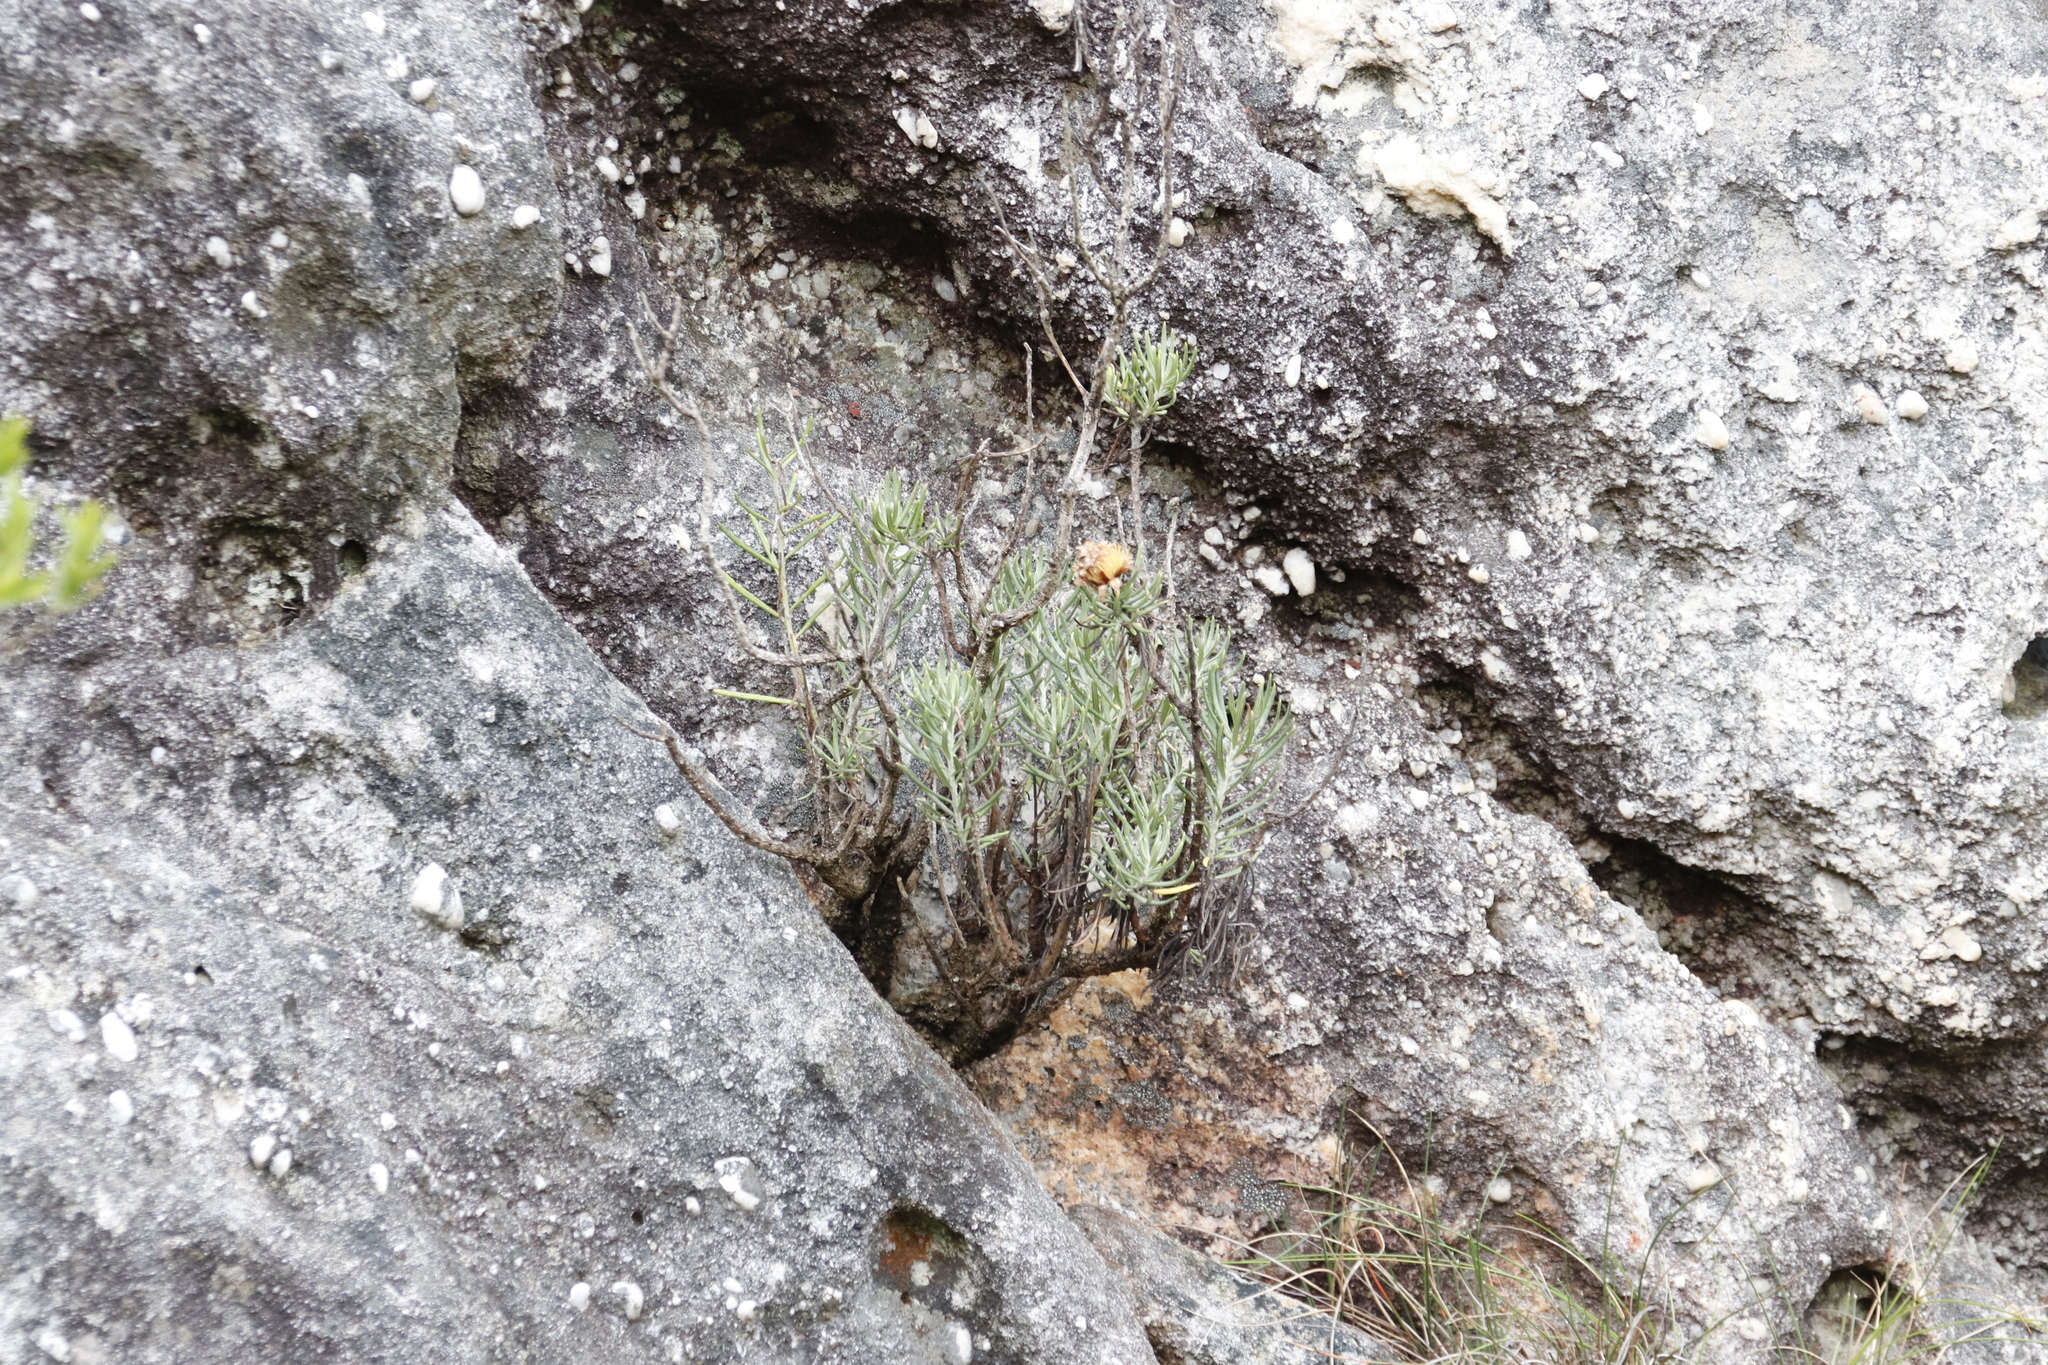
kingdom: Plantae
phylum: Tracheophyta
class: Magnoliopsida
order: Asterales
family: Asteraceae
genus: Heterolepis
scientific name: Heterolepis aliena
